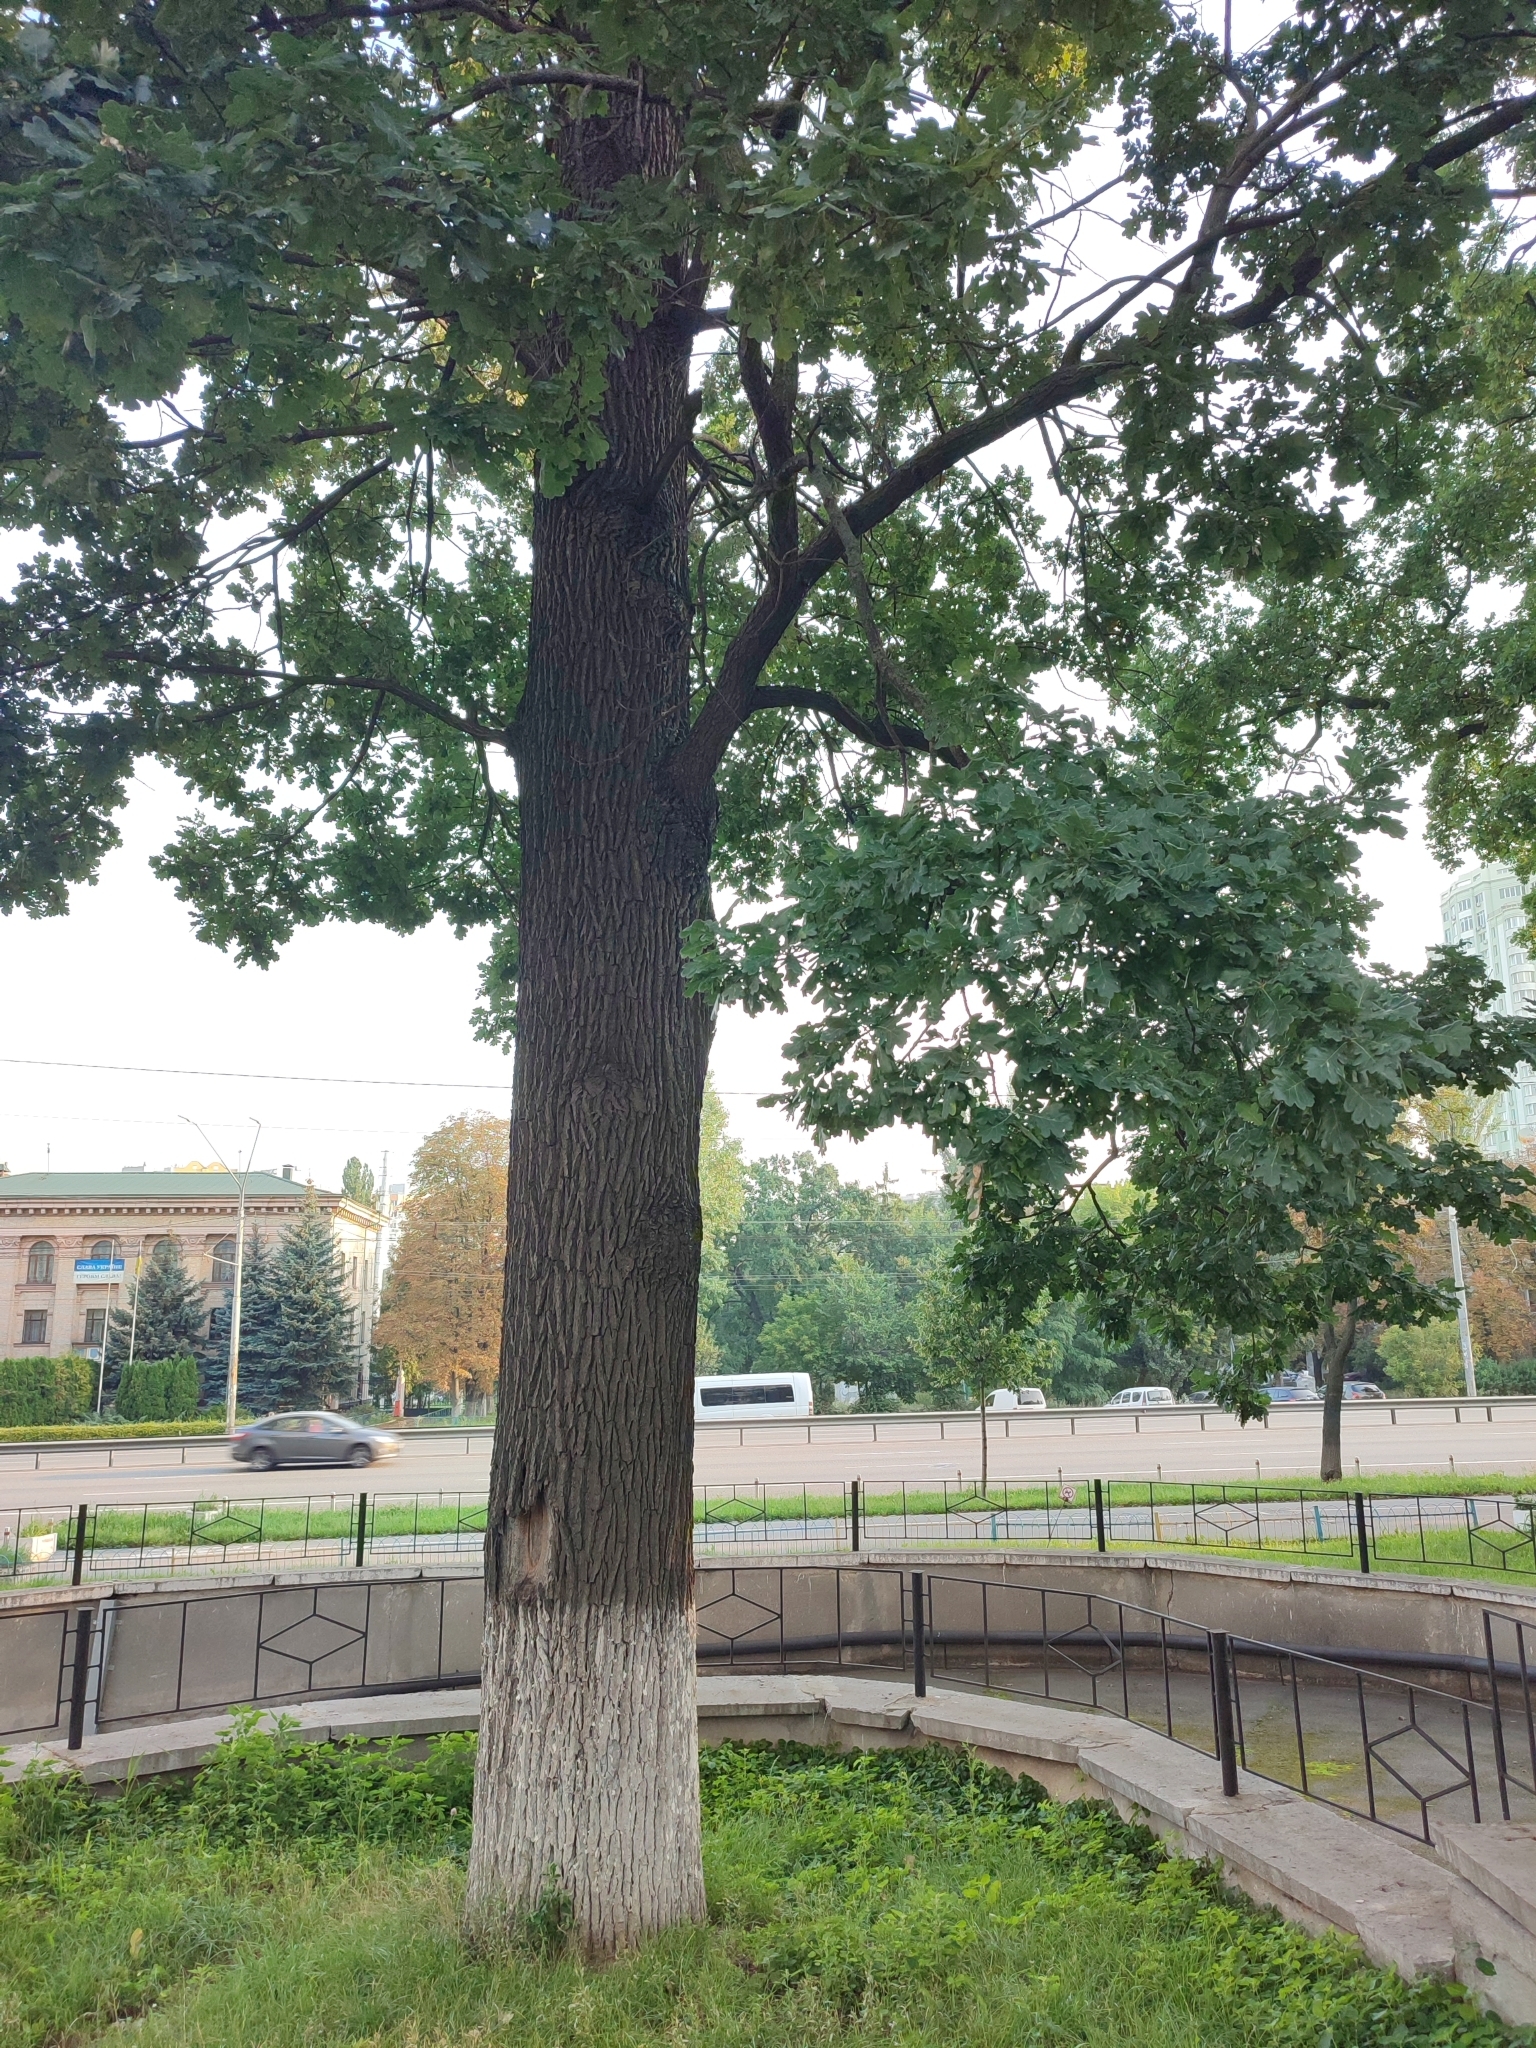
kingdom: Plantae
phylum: Tracheophyta
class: Magnoliopsida
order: Fagales
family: Fagaceae
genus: Quercus
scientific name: Quercus robur
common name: Pedunculate oak
